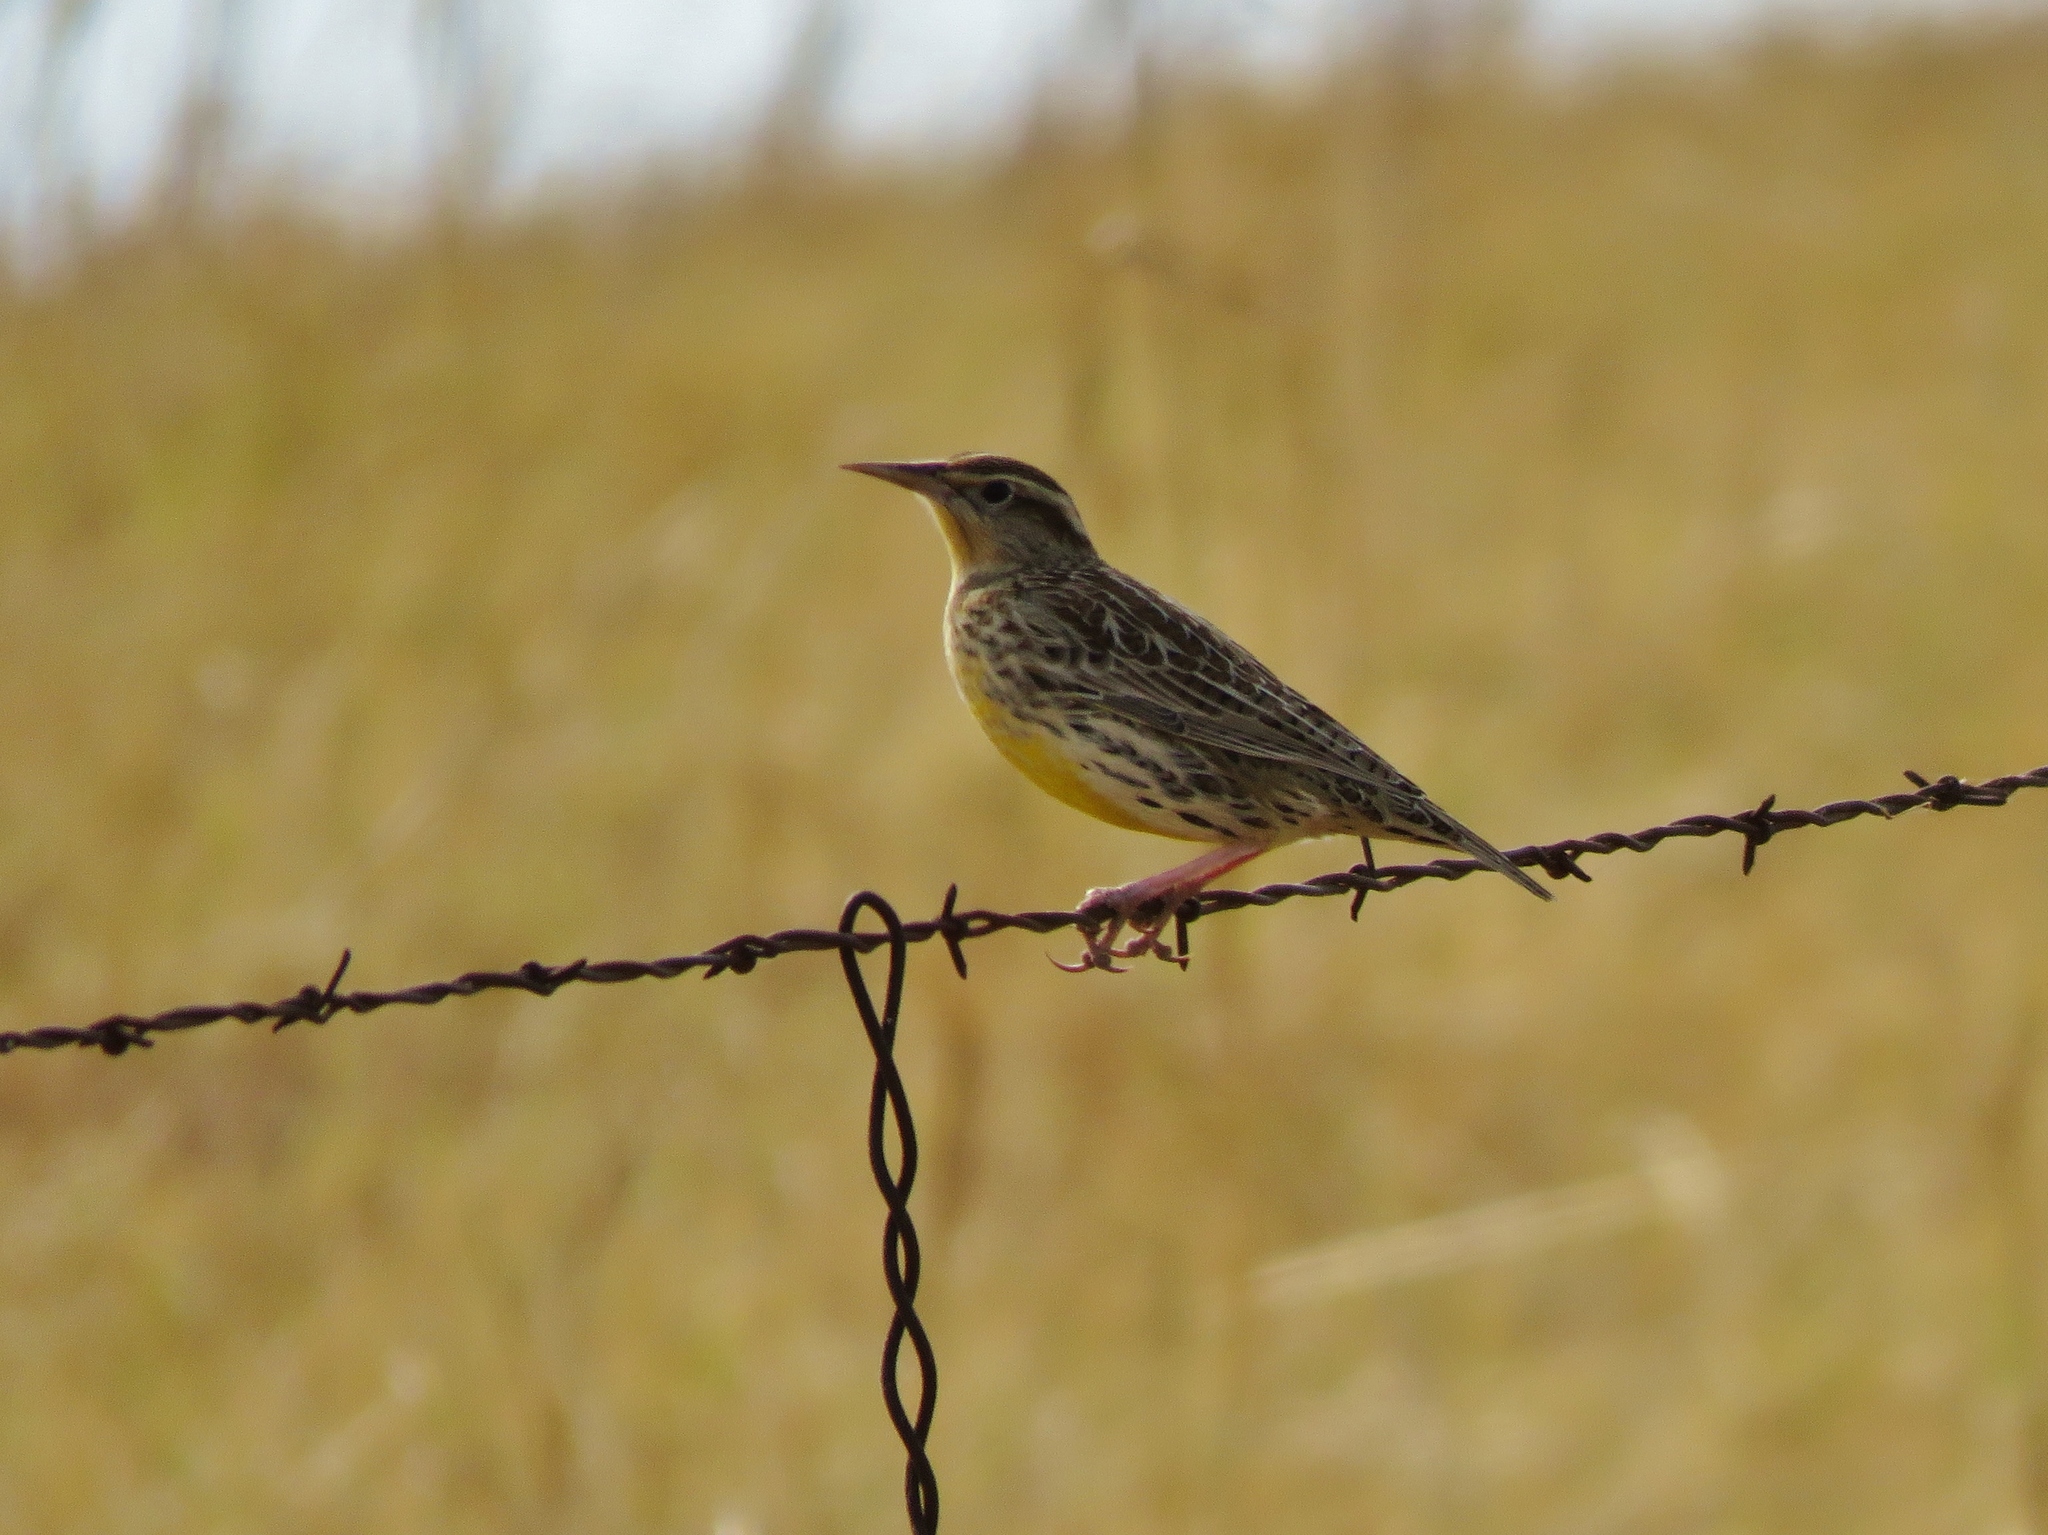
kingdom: Animalia
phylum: Chordata
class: Aves
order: Passeriformes
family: Icteridae
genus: Sturnella
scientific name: Sturnella neglecta
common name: Western meadowlark
